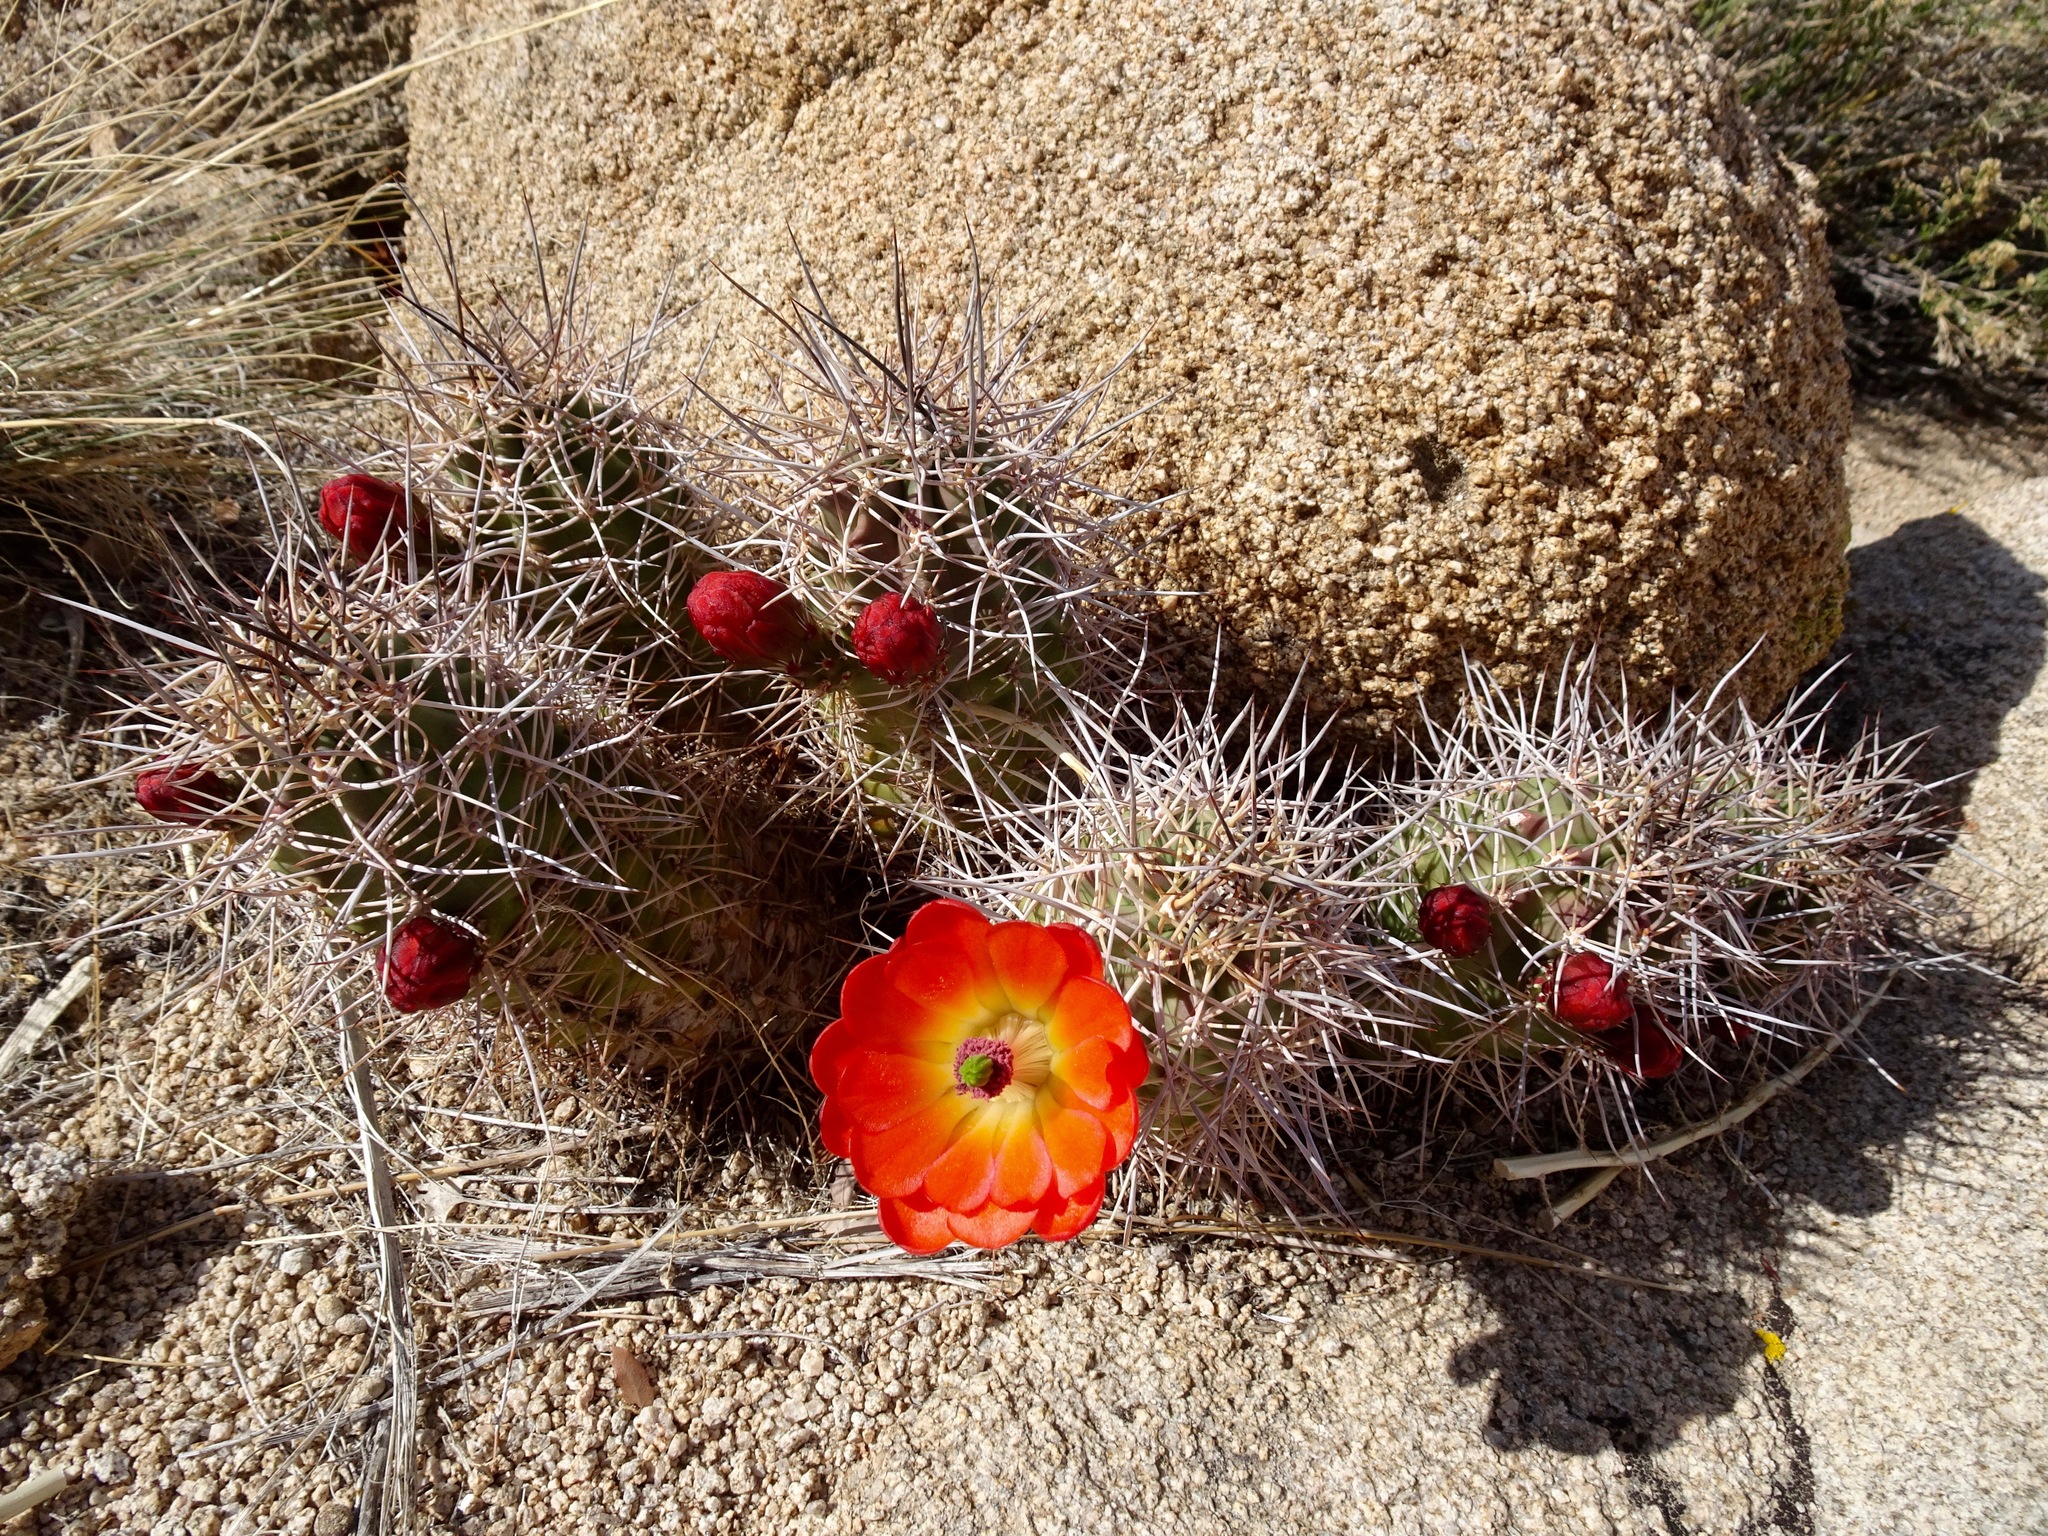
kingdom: Plantae
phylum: Tracheophyta
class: Magnoliopsida
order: Caryophyllales
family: Cactaceae
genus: Echinocereus
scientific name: Echinocereus triglochidiatus
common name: Claretcup hedgehog
